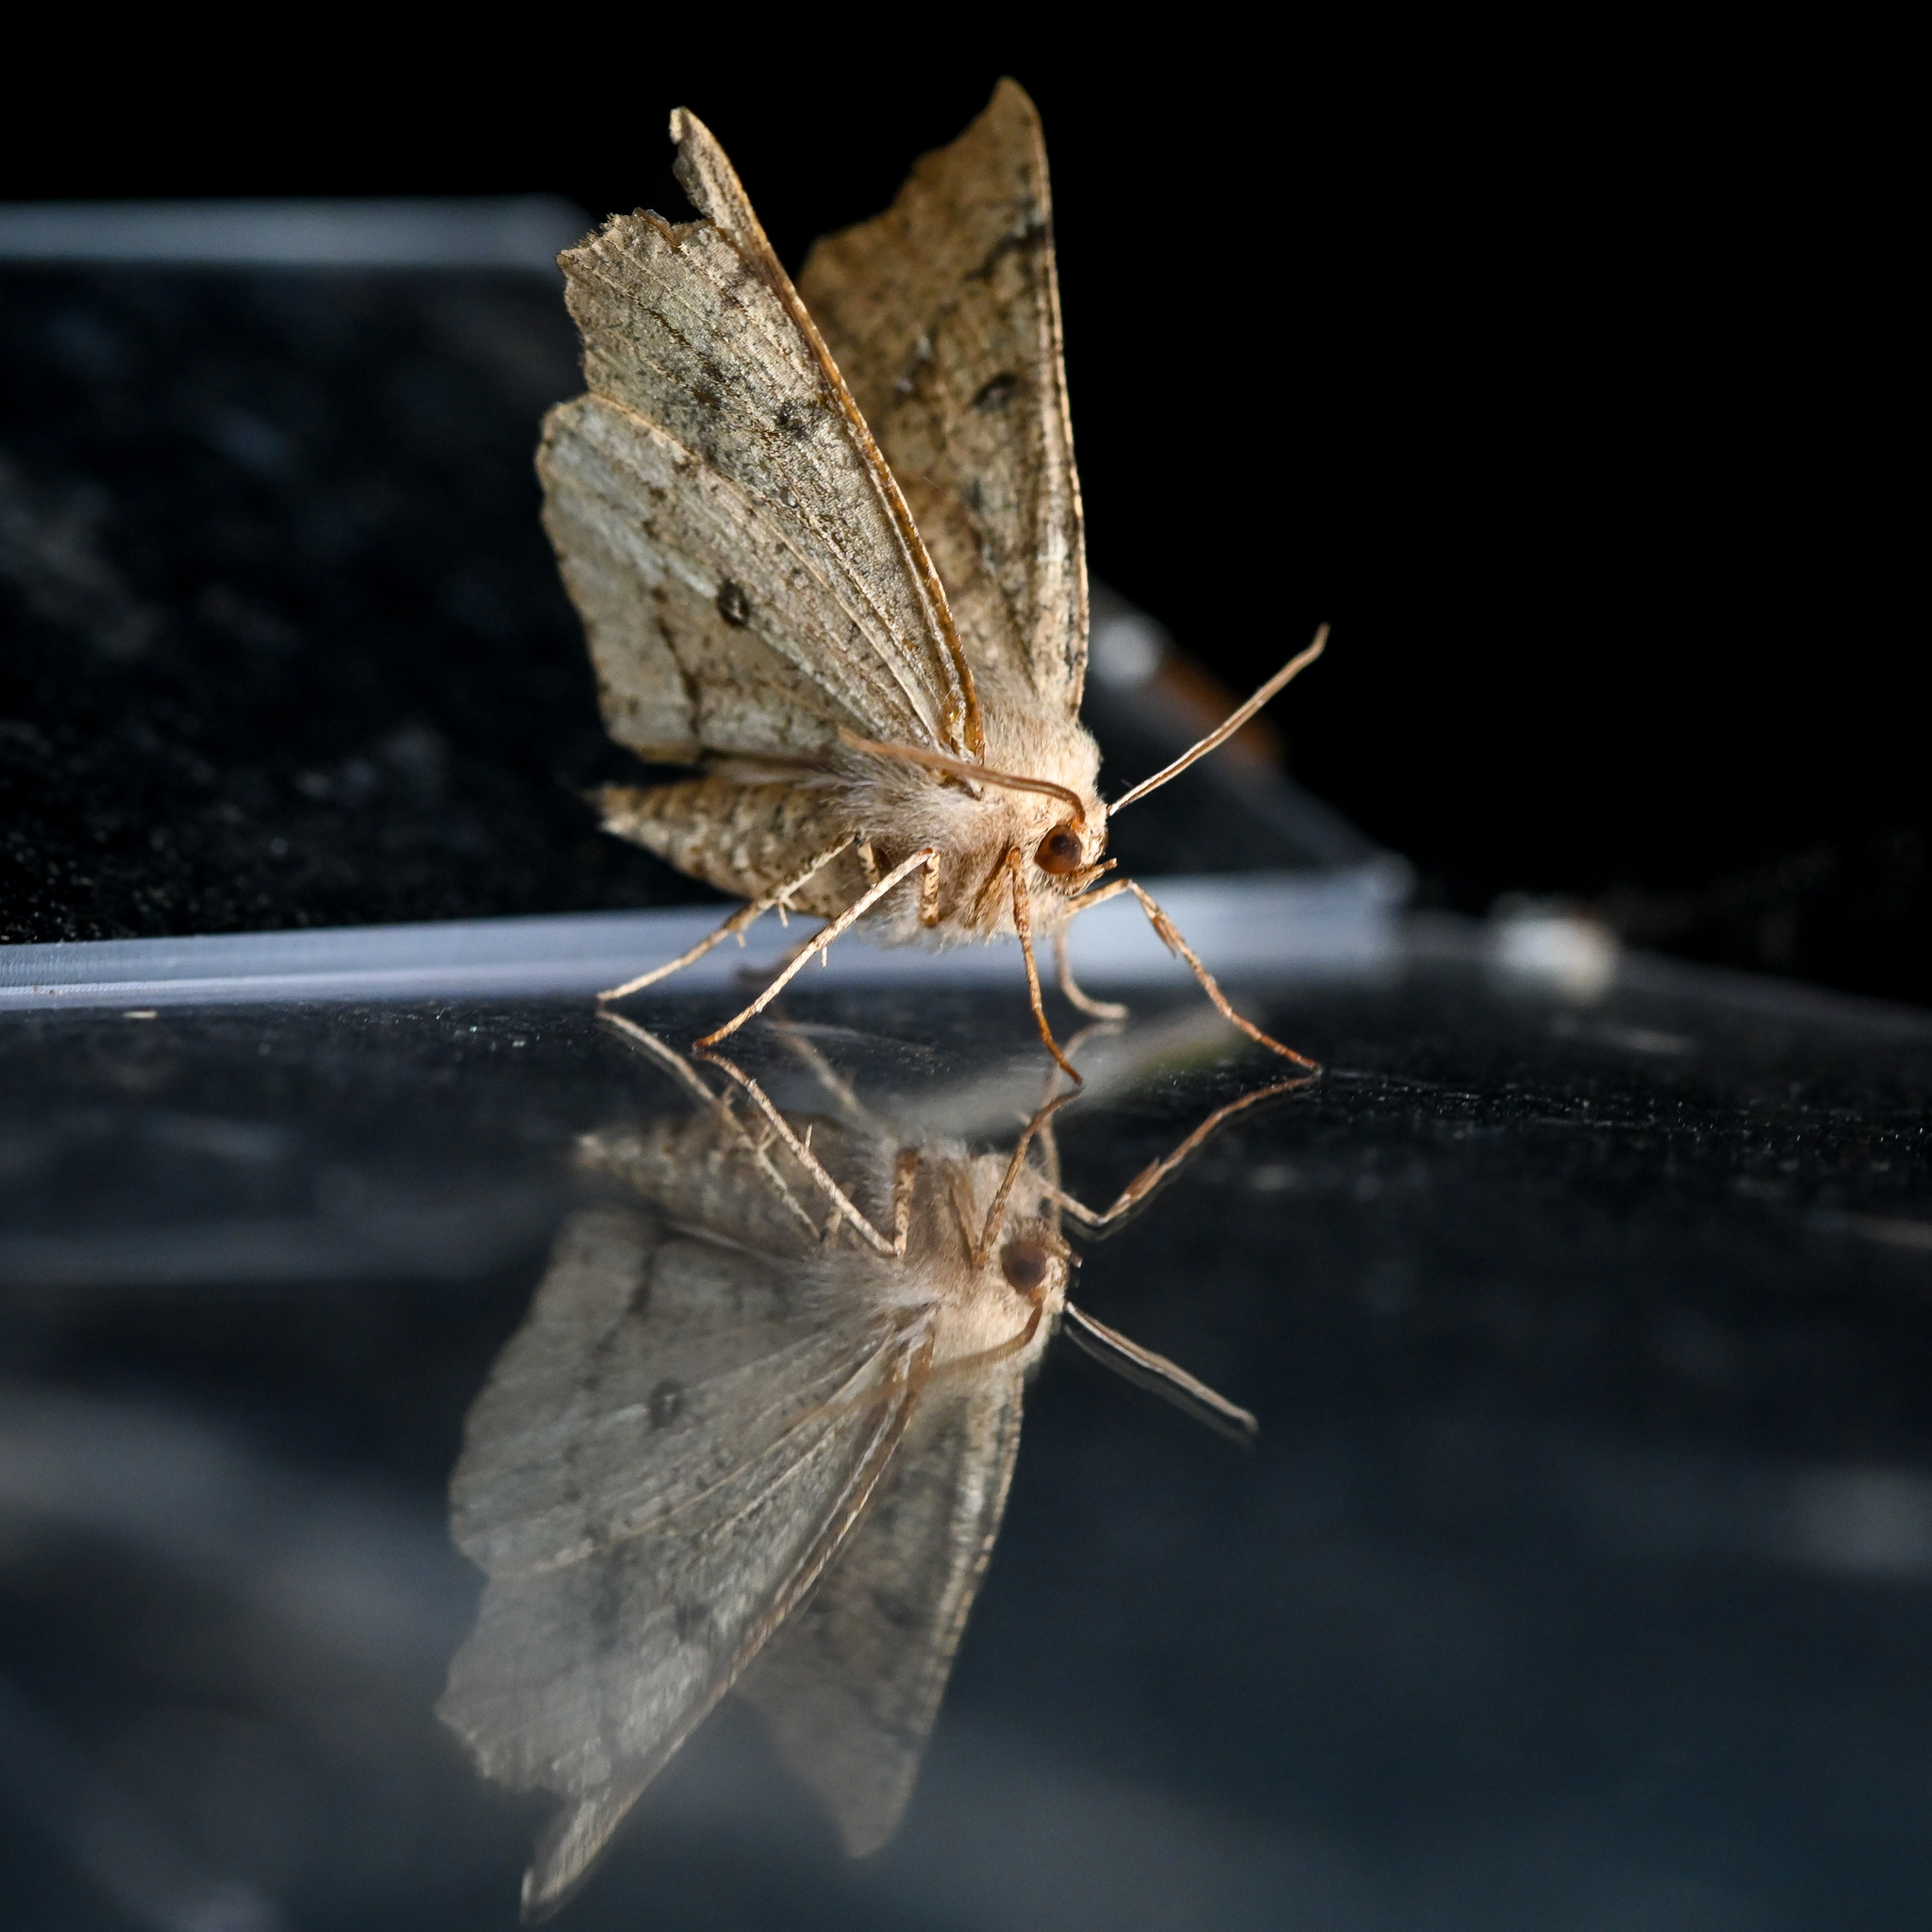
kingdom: Animalia
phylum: Arthropoda
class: Insecta
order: Lepidoptera
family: Geometridae
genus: Odontopera
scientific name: Odontopera bidentata
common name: Scalloped hazel
